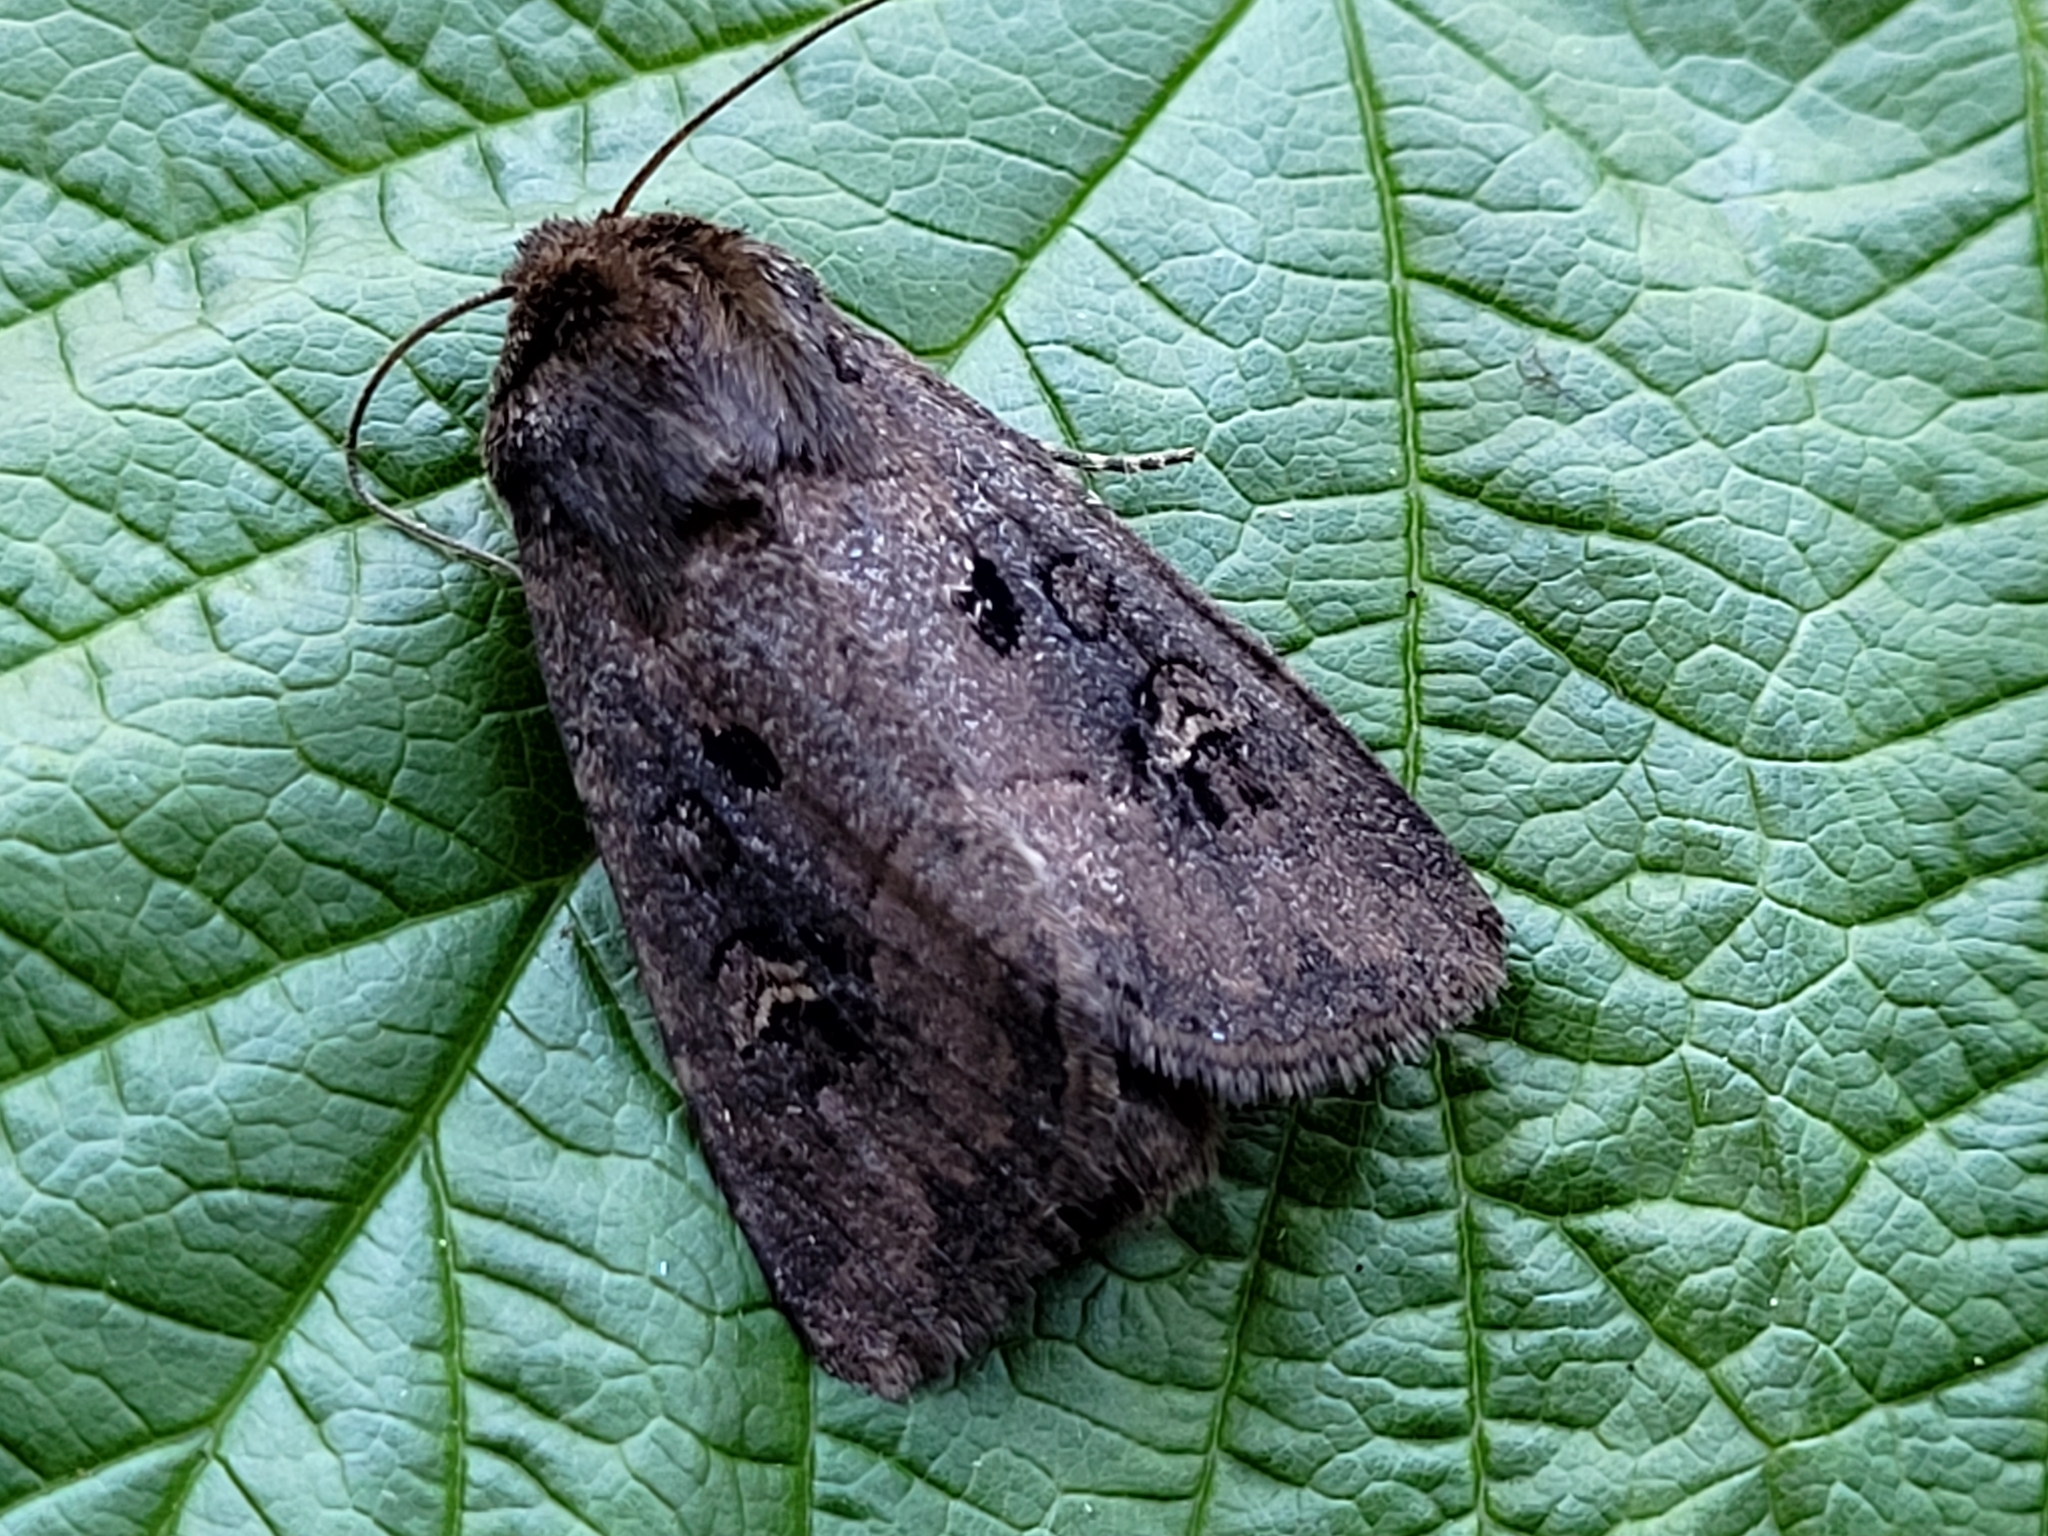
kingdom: Animalia
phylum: Arthropoda
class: Insecta
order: Lepidoptera
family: Noctuidae
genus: Resapamea
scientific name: Resapamea passer
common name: Dock rustic moth
